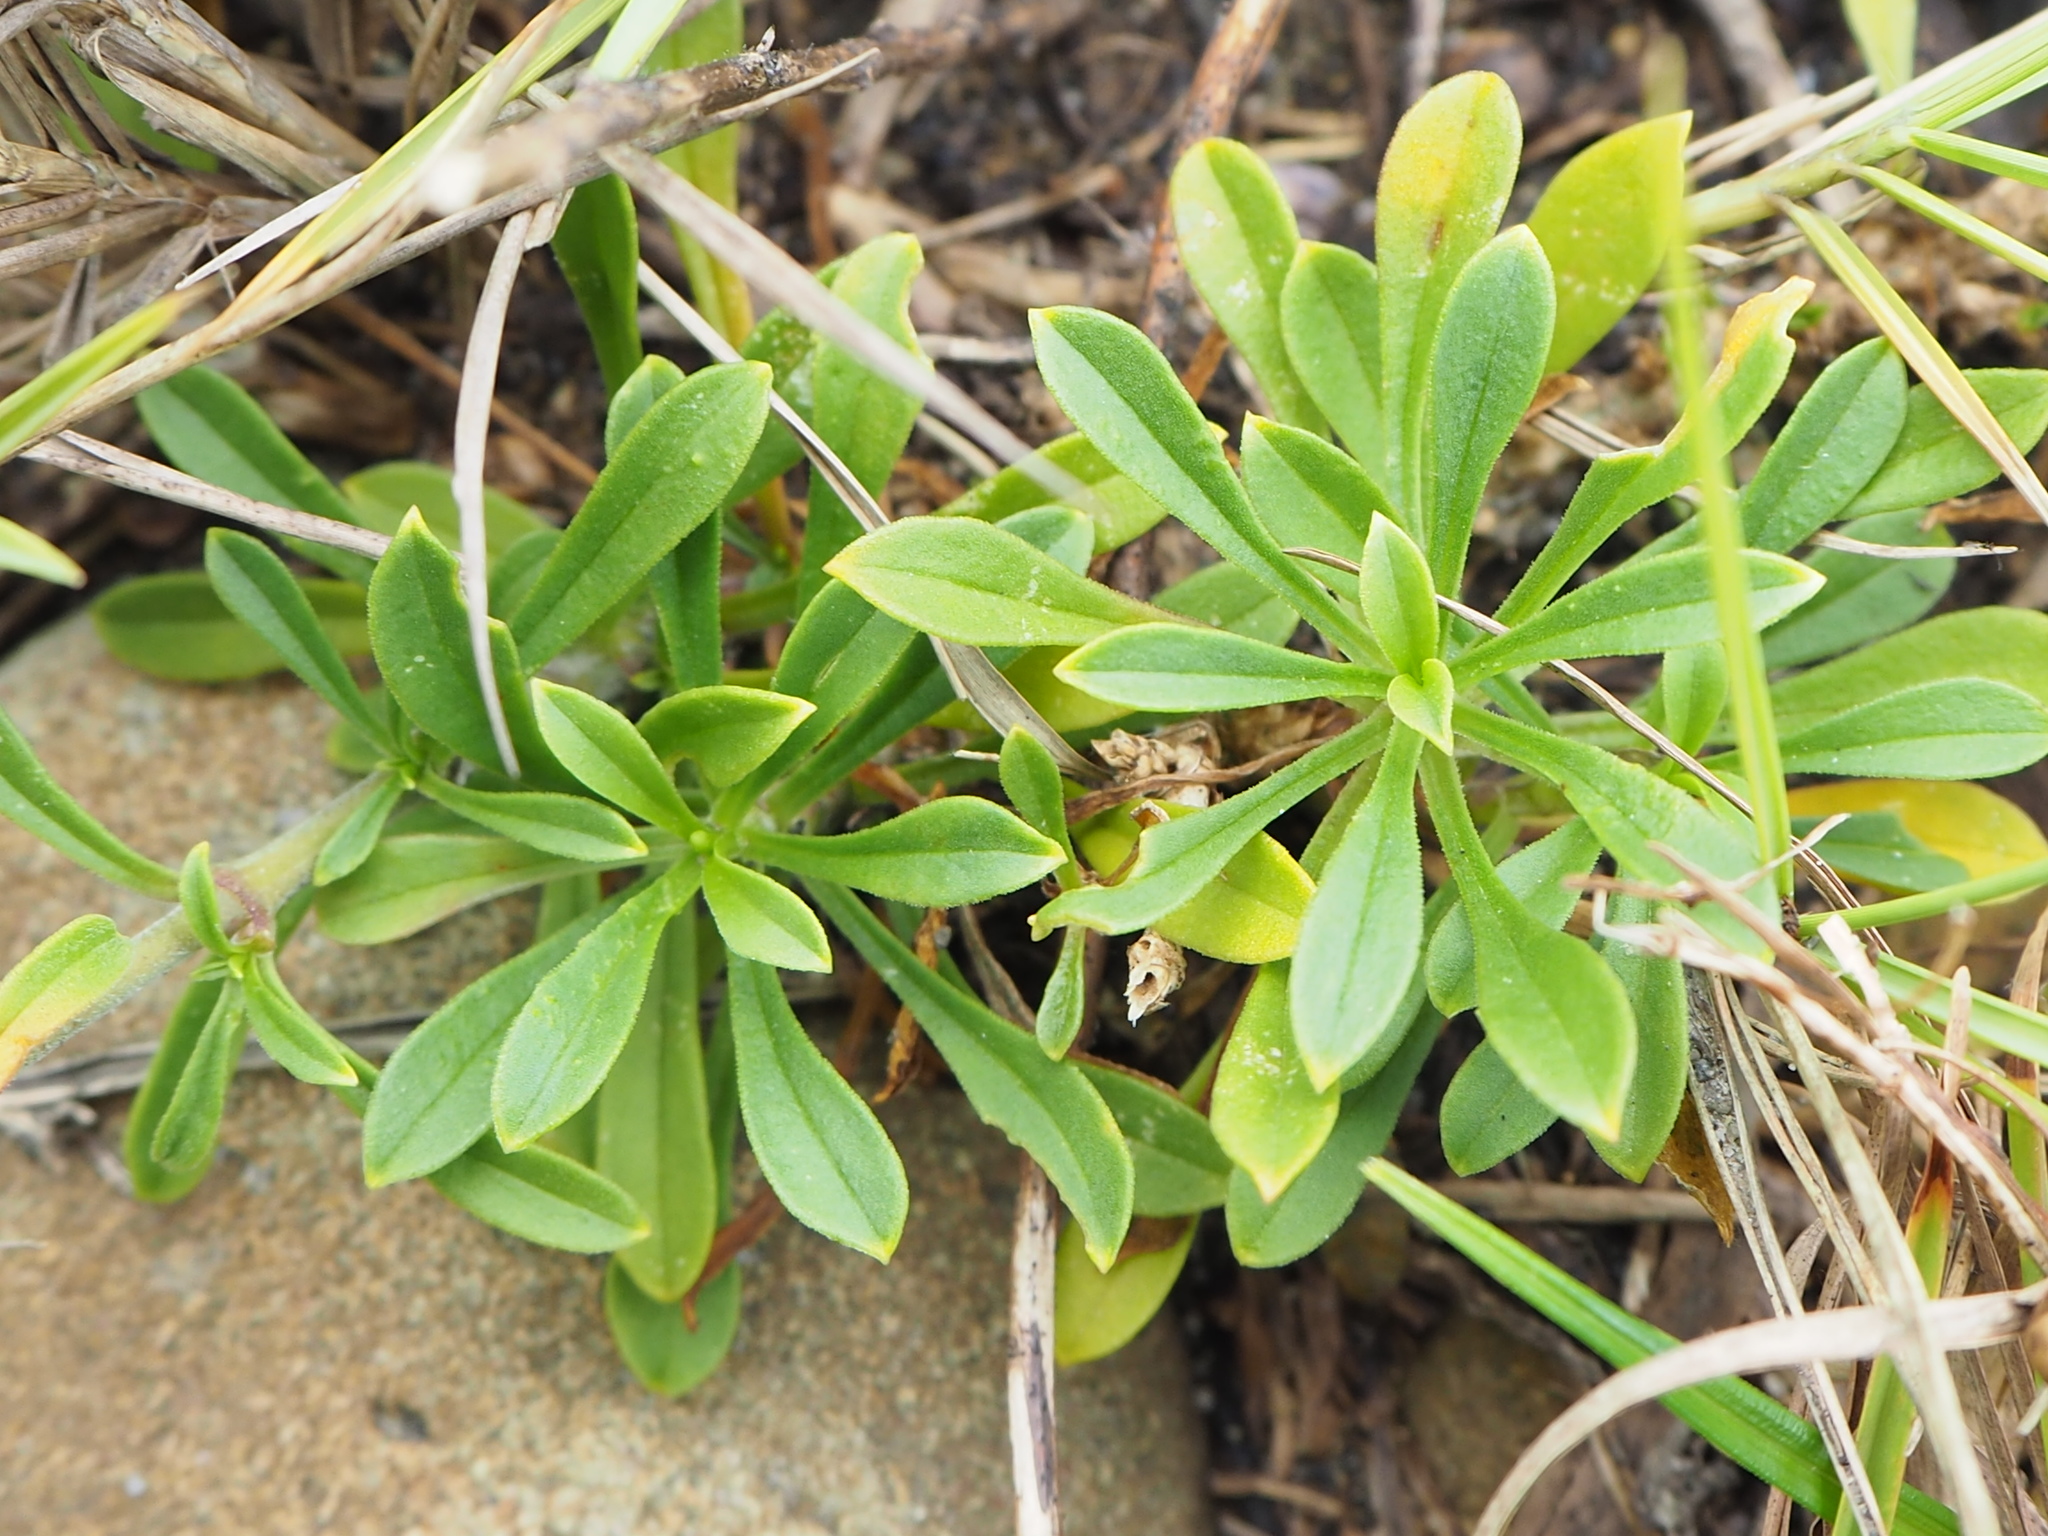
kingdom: Plantae
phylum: Tracheophyta
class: Magnoliopsida
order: Caryophyllales
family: Caryophyllaceae
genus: Silene
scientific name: Silene fissipetala
